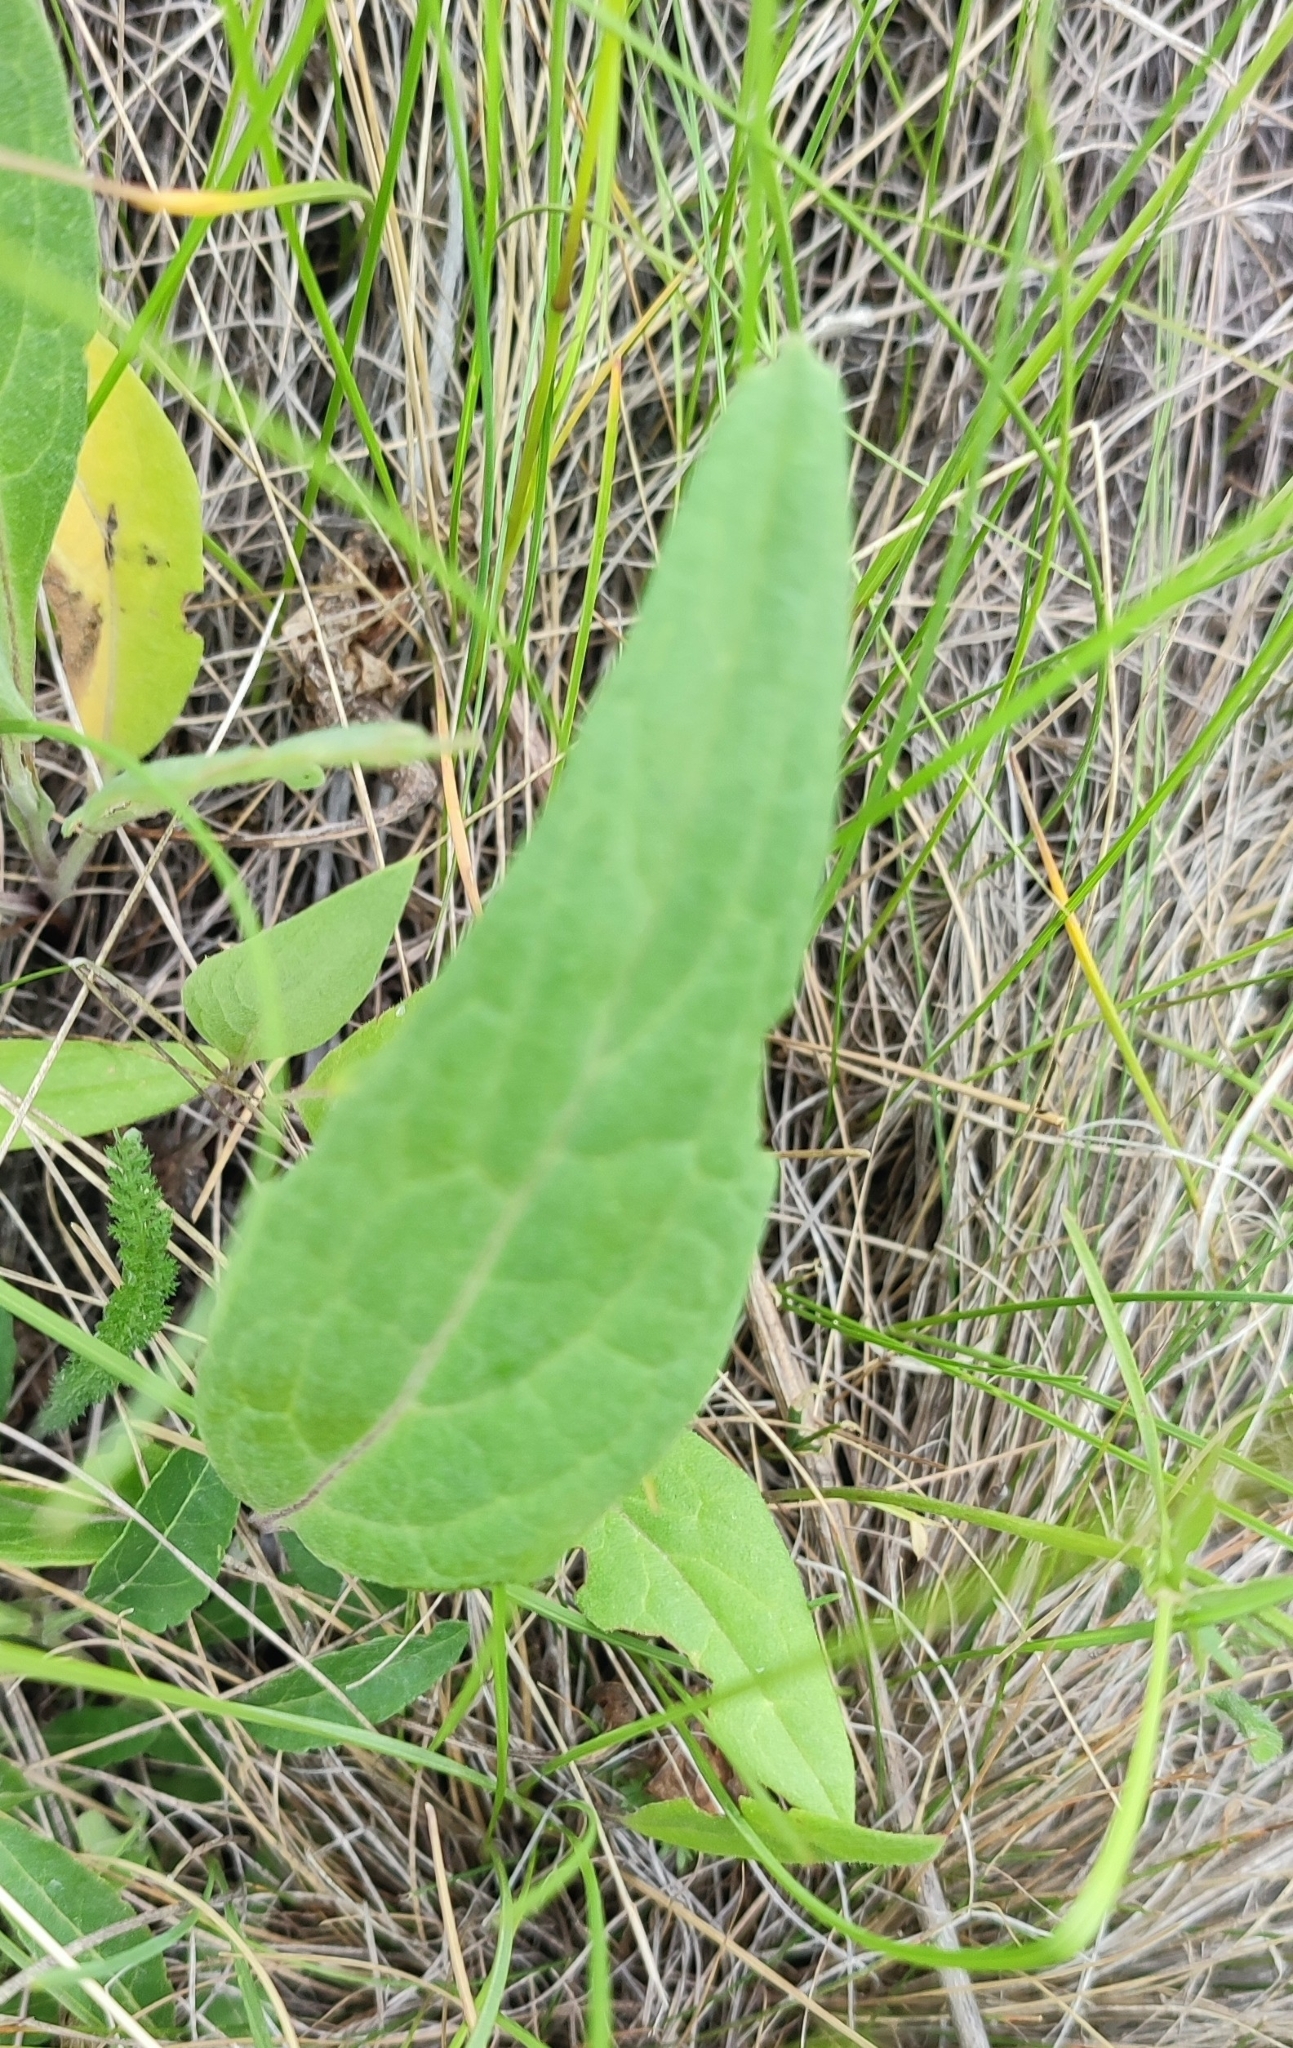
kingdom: Plantae
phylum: Tracheophyta
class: Magnoliopsida
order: Asterales
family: Asteraceae
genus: Saussurea
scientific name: Saussurea amara
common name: Alberta sawwort
